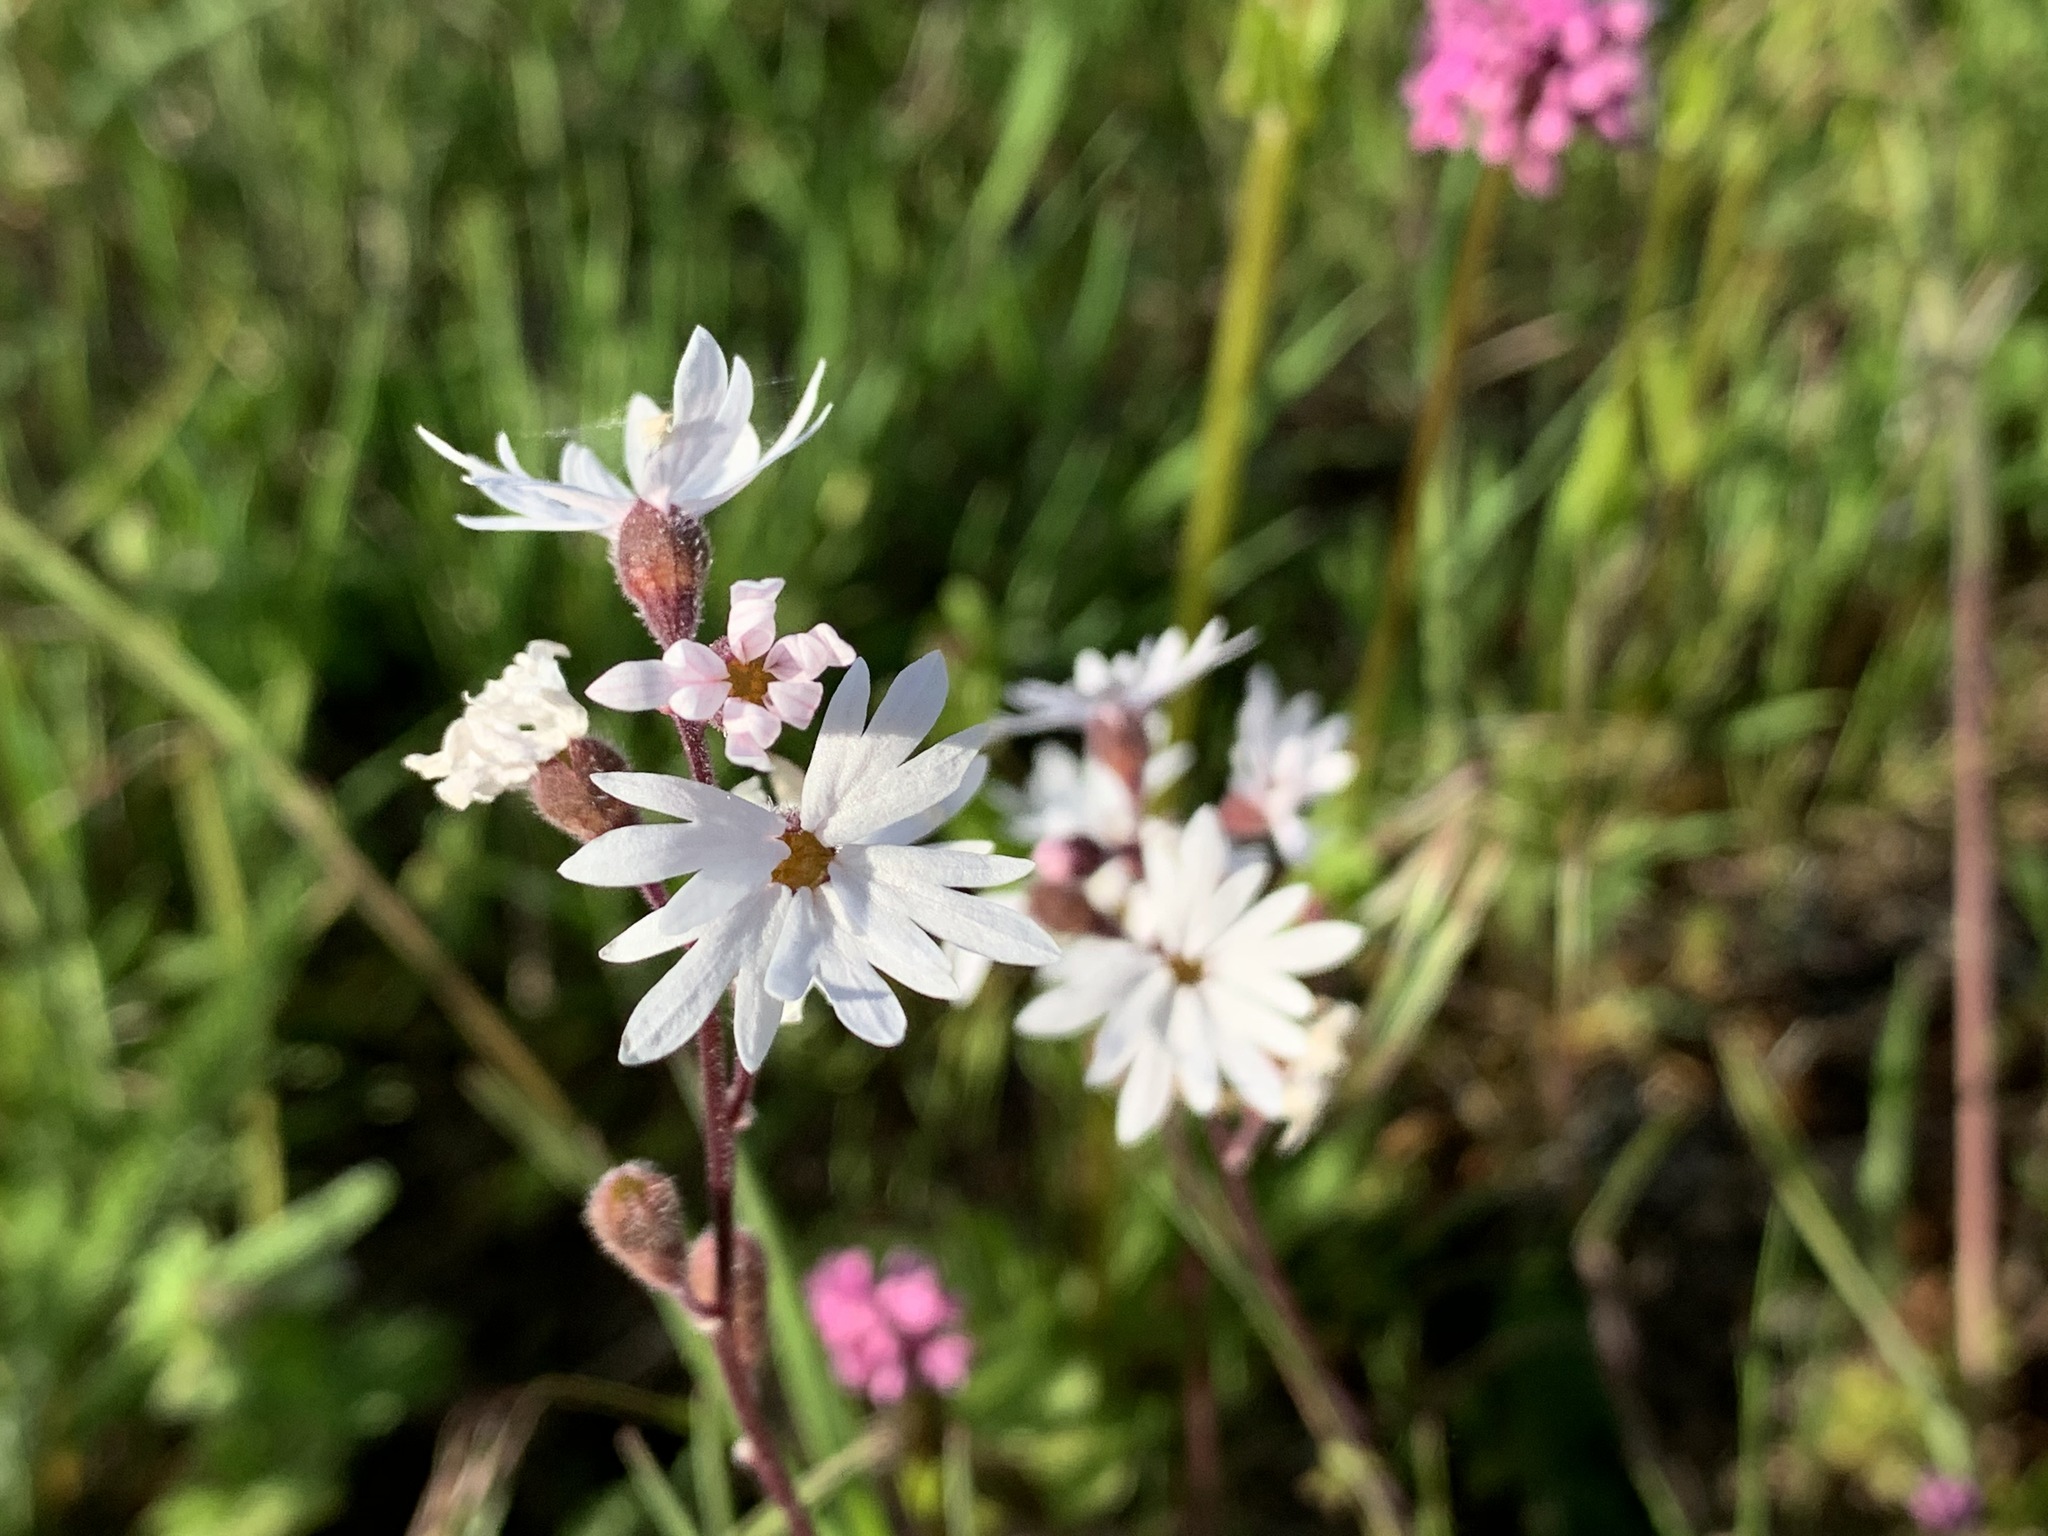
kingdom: Plantae
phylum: Tracheophyta
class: Magnoliopsida
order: Saxifragales
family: Saxifragaceae
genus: Lithophragma
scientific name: Lithophragma parviflorum
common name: Small-flowered fringe-cup
